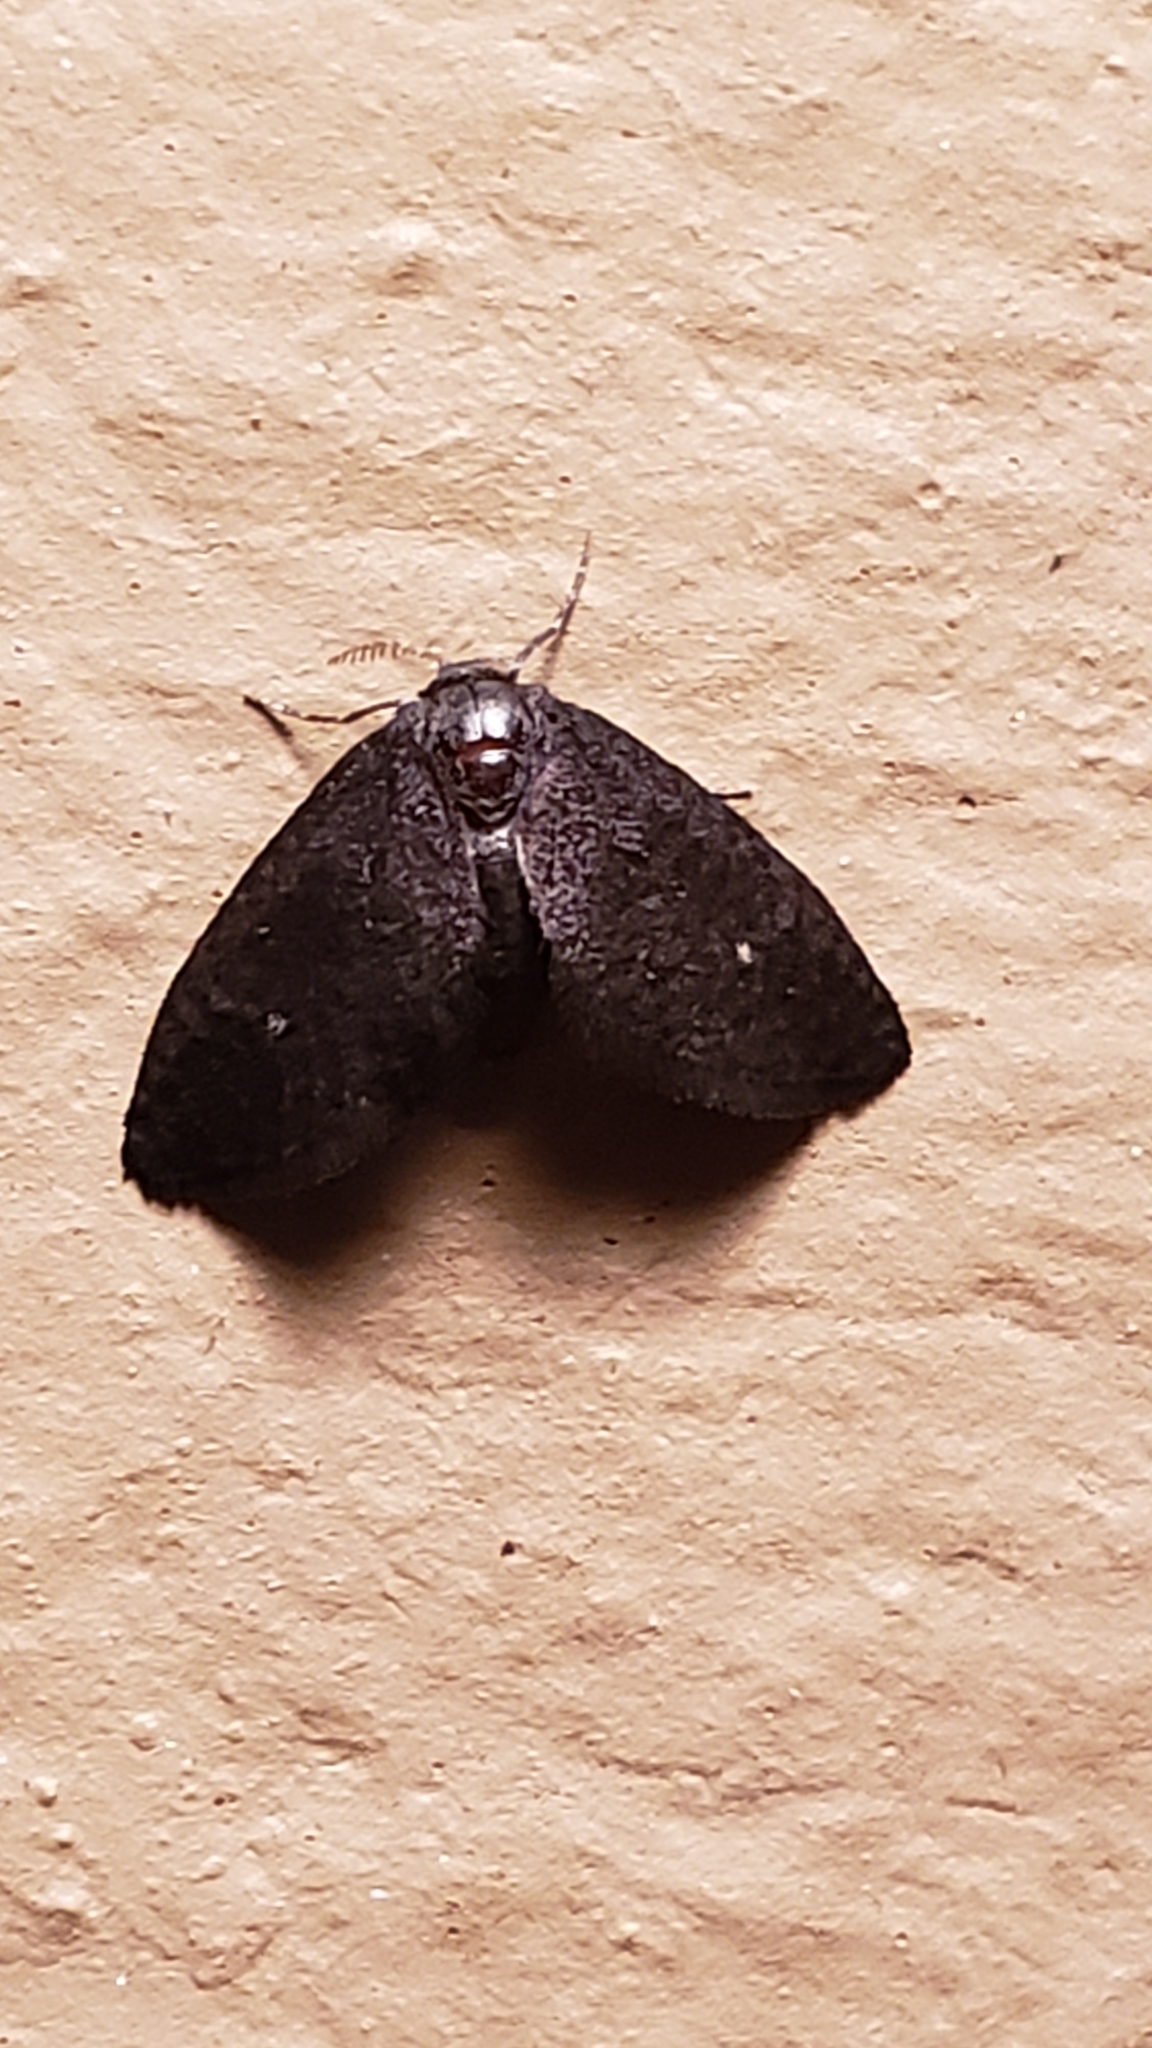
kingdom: Animalia
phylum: Arthropoda
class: Insecta
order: Lepidoptera
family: Epipyropidae
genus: Fulgoraecia
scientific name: Fulgoraecia exigua
